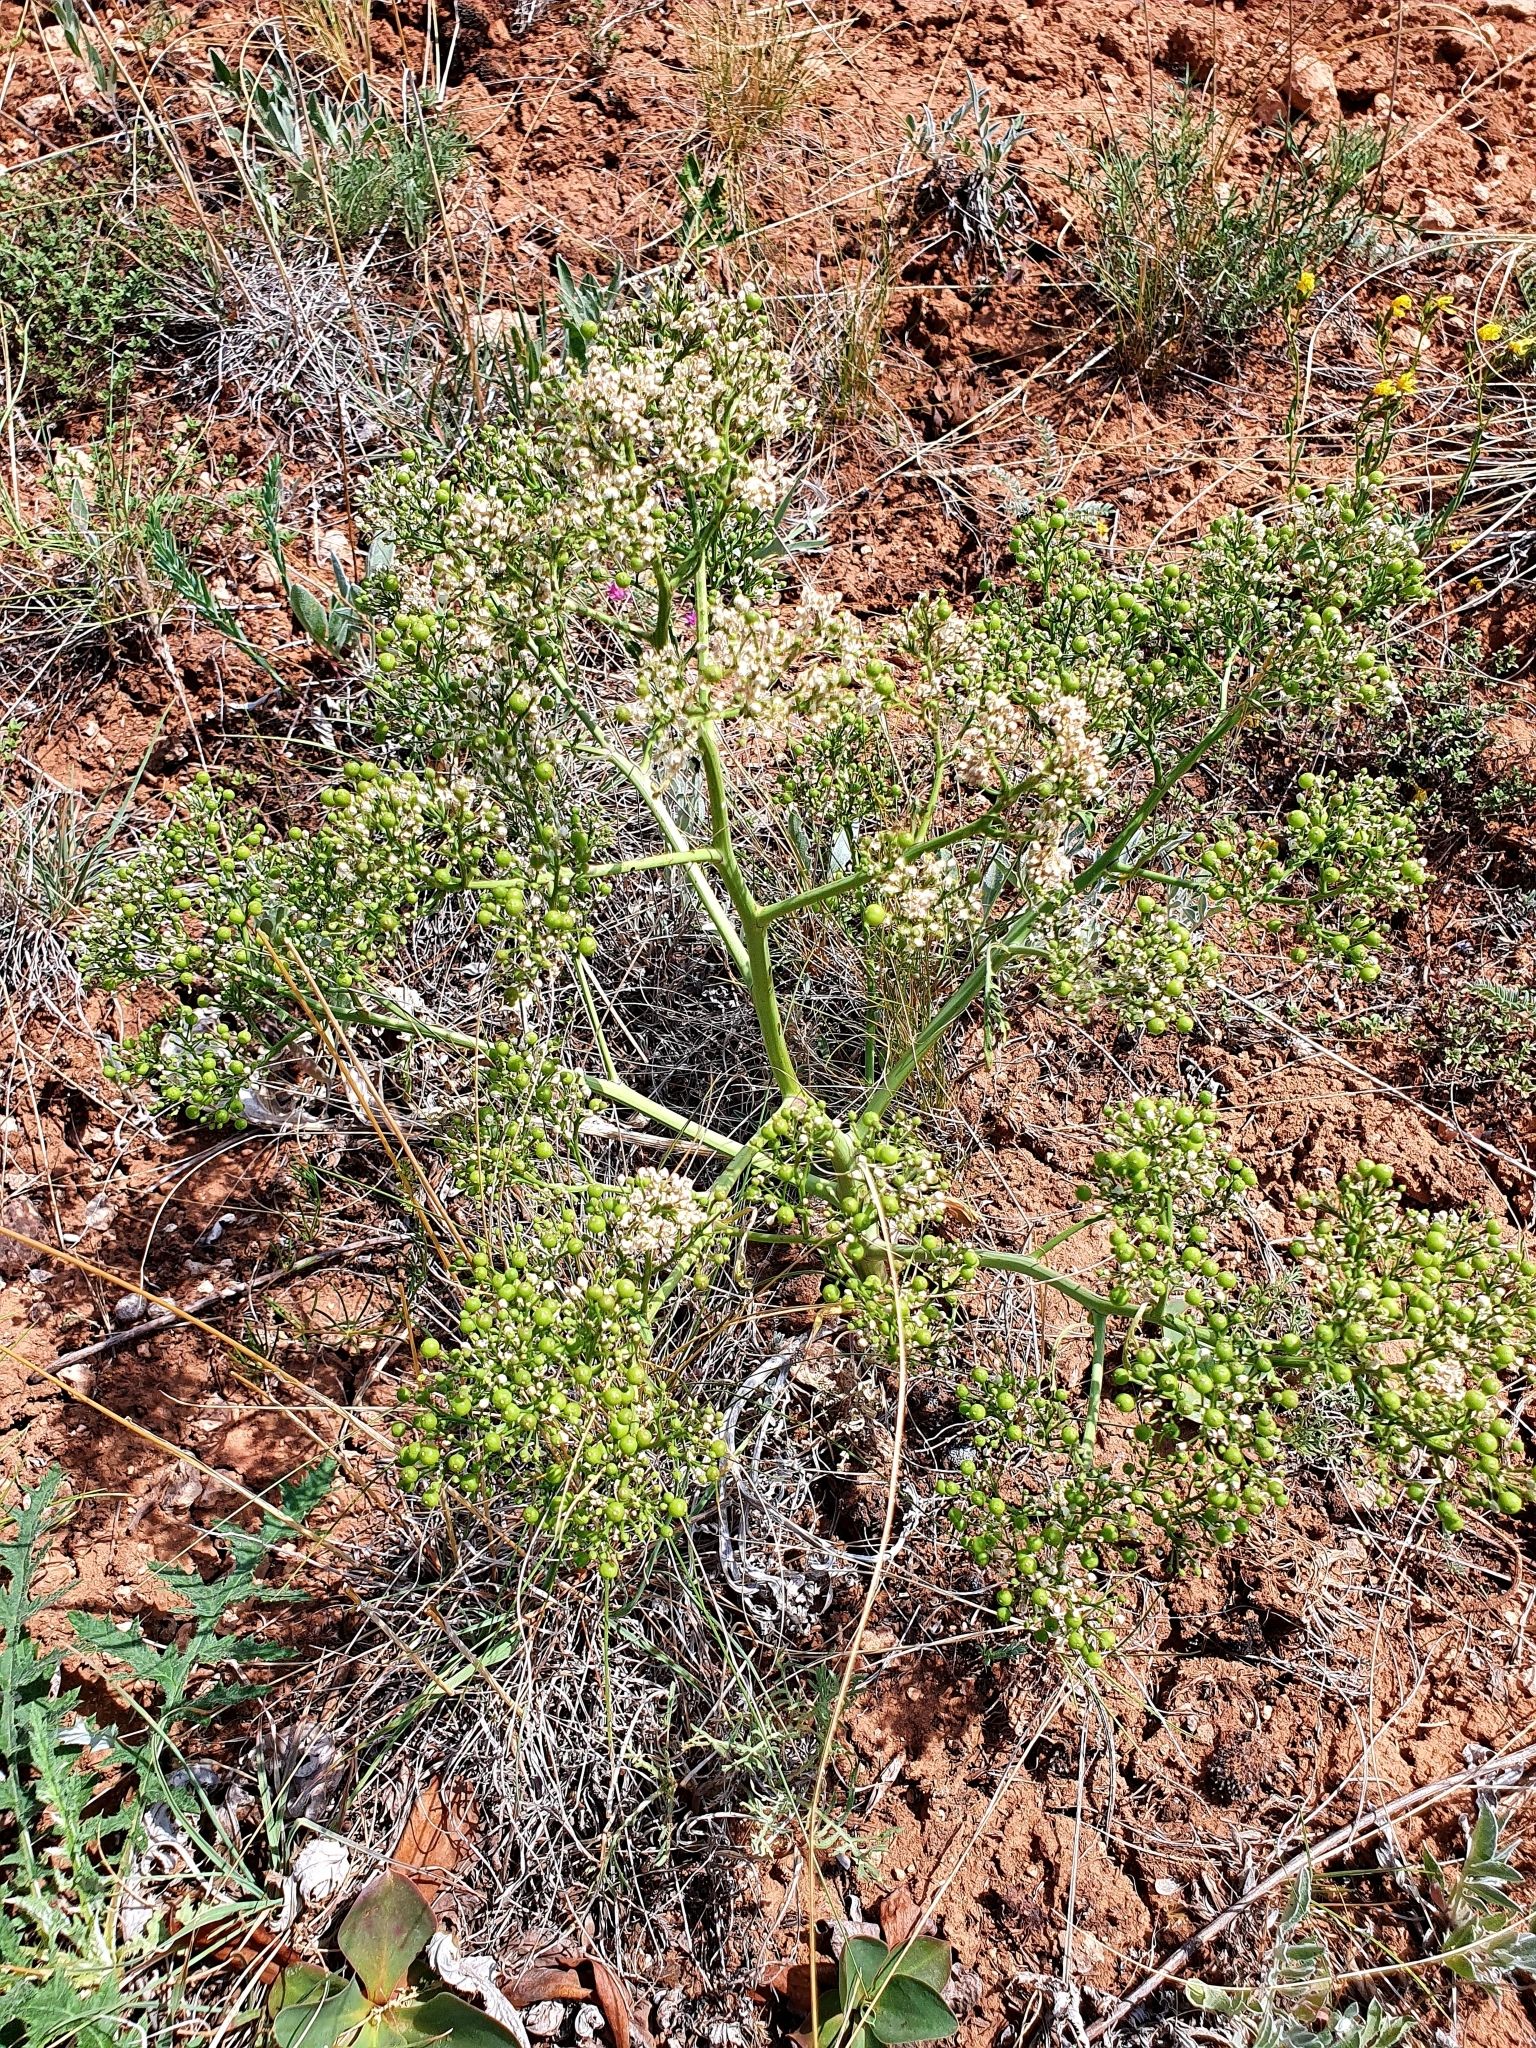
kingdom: Plantae
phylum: Tracheophyta
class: Magnoliopsida
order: Brassicales
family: Brassicaceae
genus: Crambe
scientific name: Crambe tataria
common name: Tartarian breadplant
